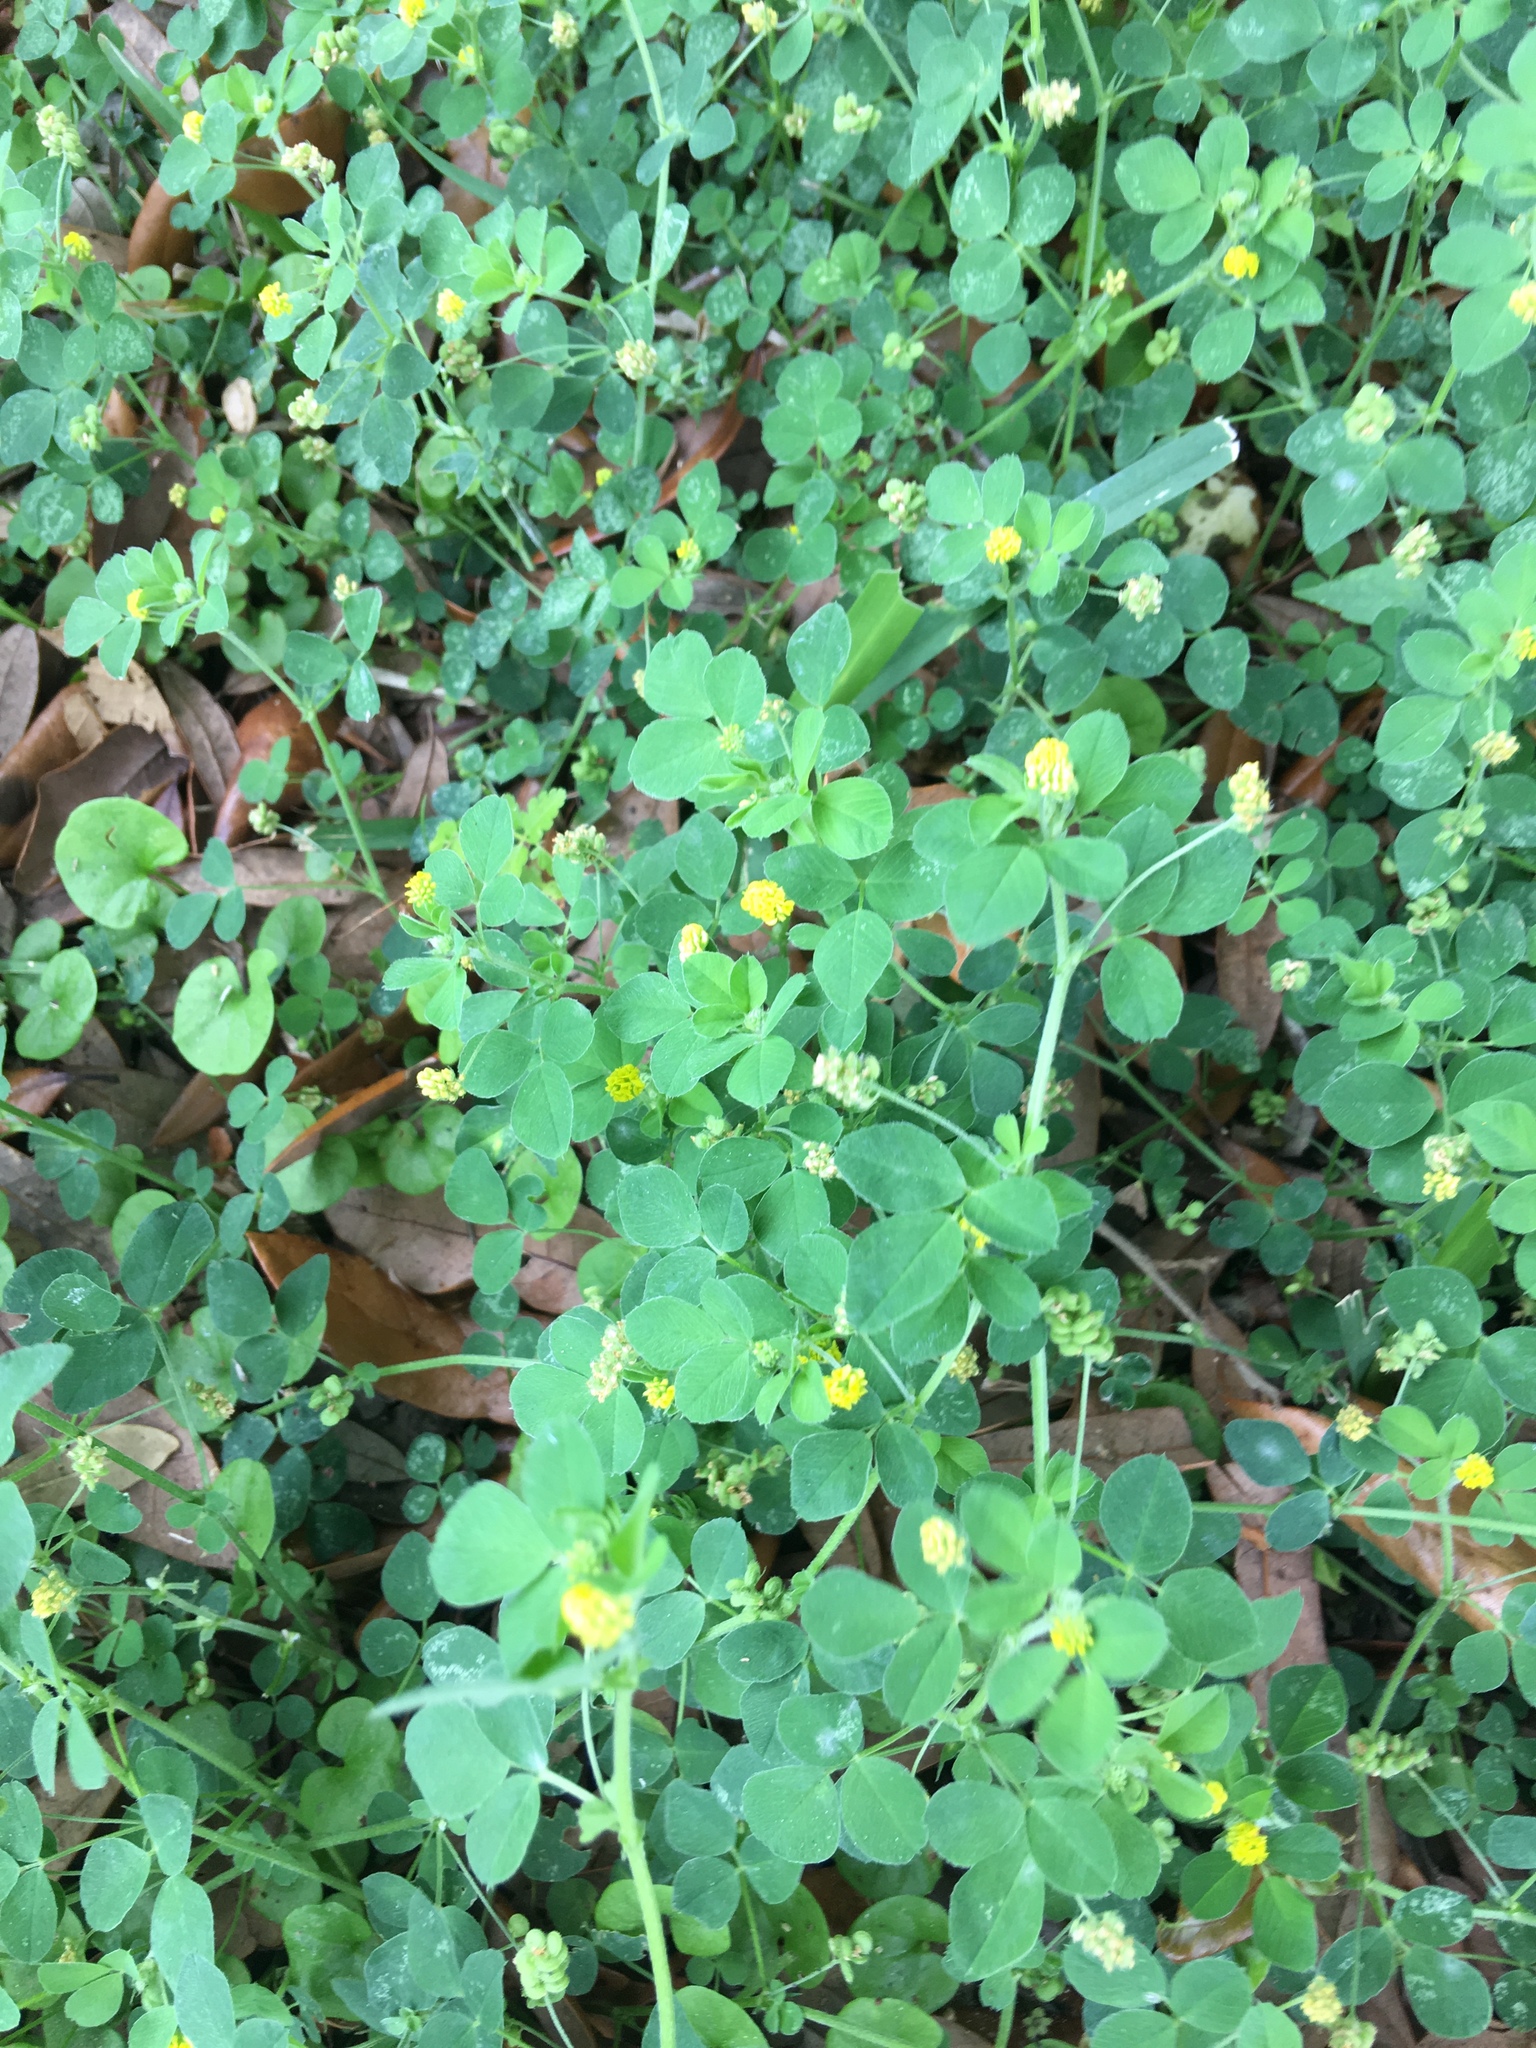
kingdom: Plantae
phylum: Tracheophyta
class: Magnoliopsida
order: Fabales
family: Fabaceae
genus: Medicago
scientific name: Medicago lupulina
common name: Black medick
